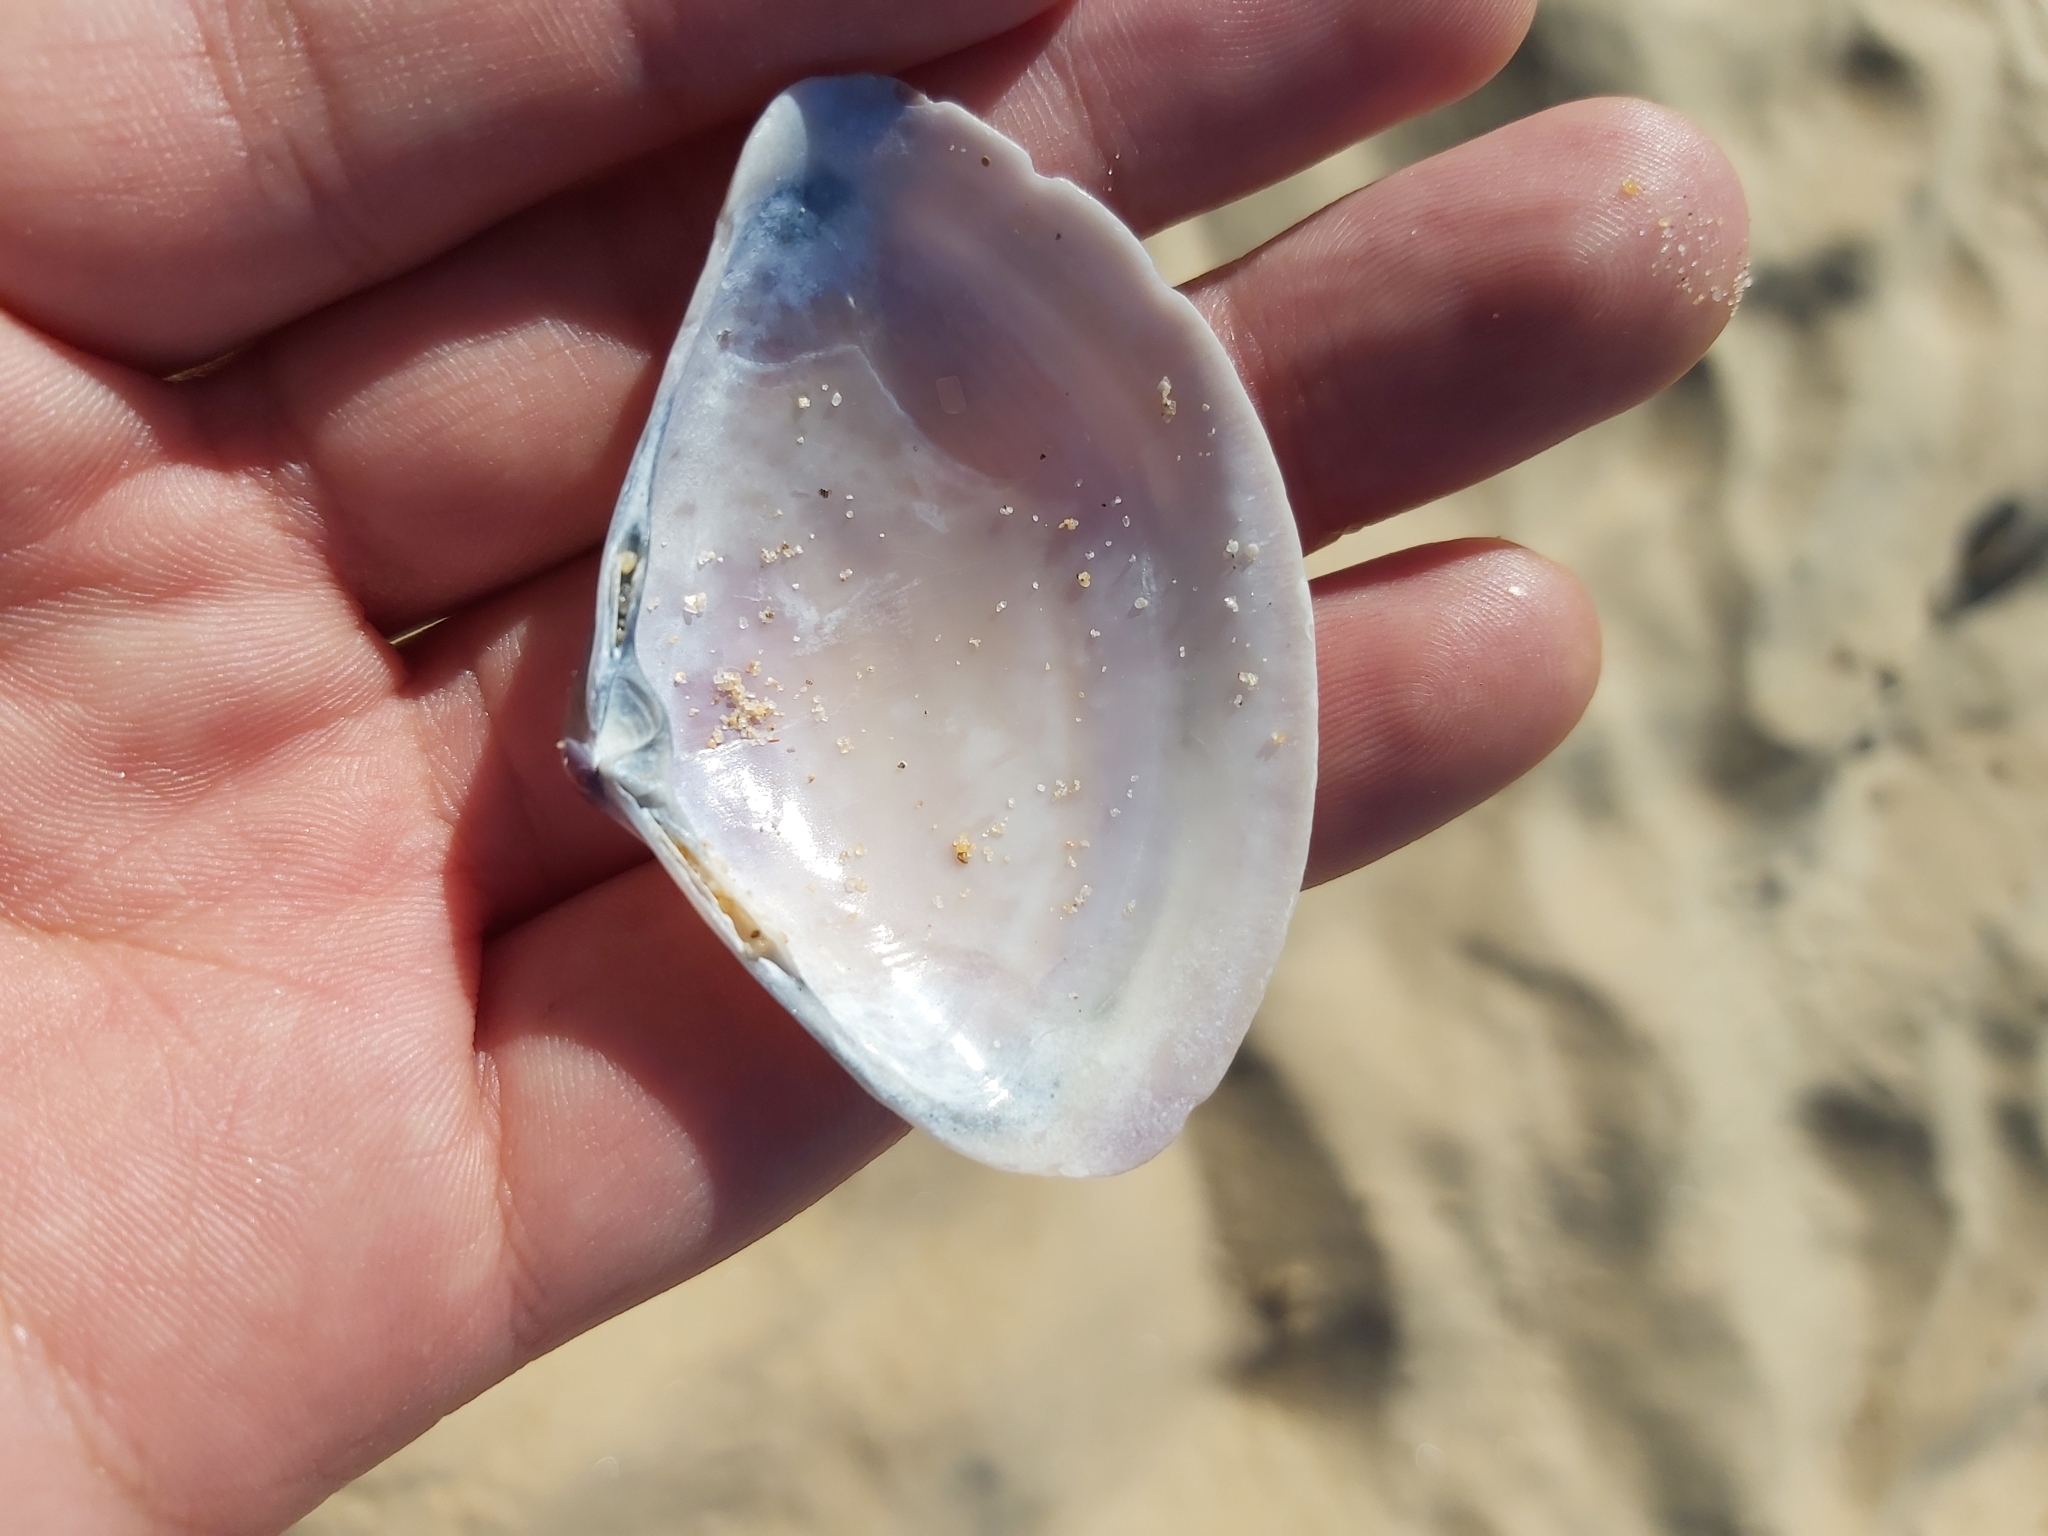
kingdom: Animalia
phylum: Mollusca
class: Bivalvia
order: Venerida
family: Mactridae
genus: Austromactra
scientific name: Austromactra rufescens
